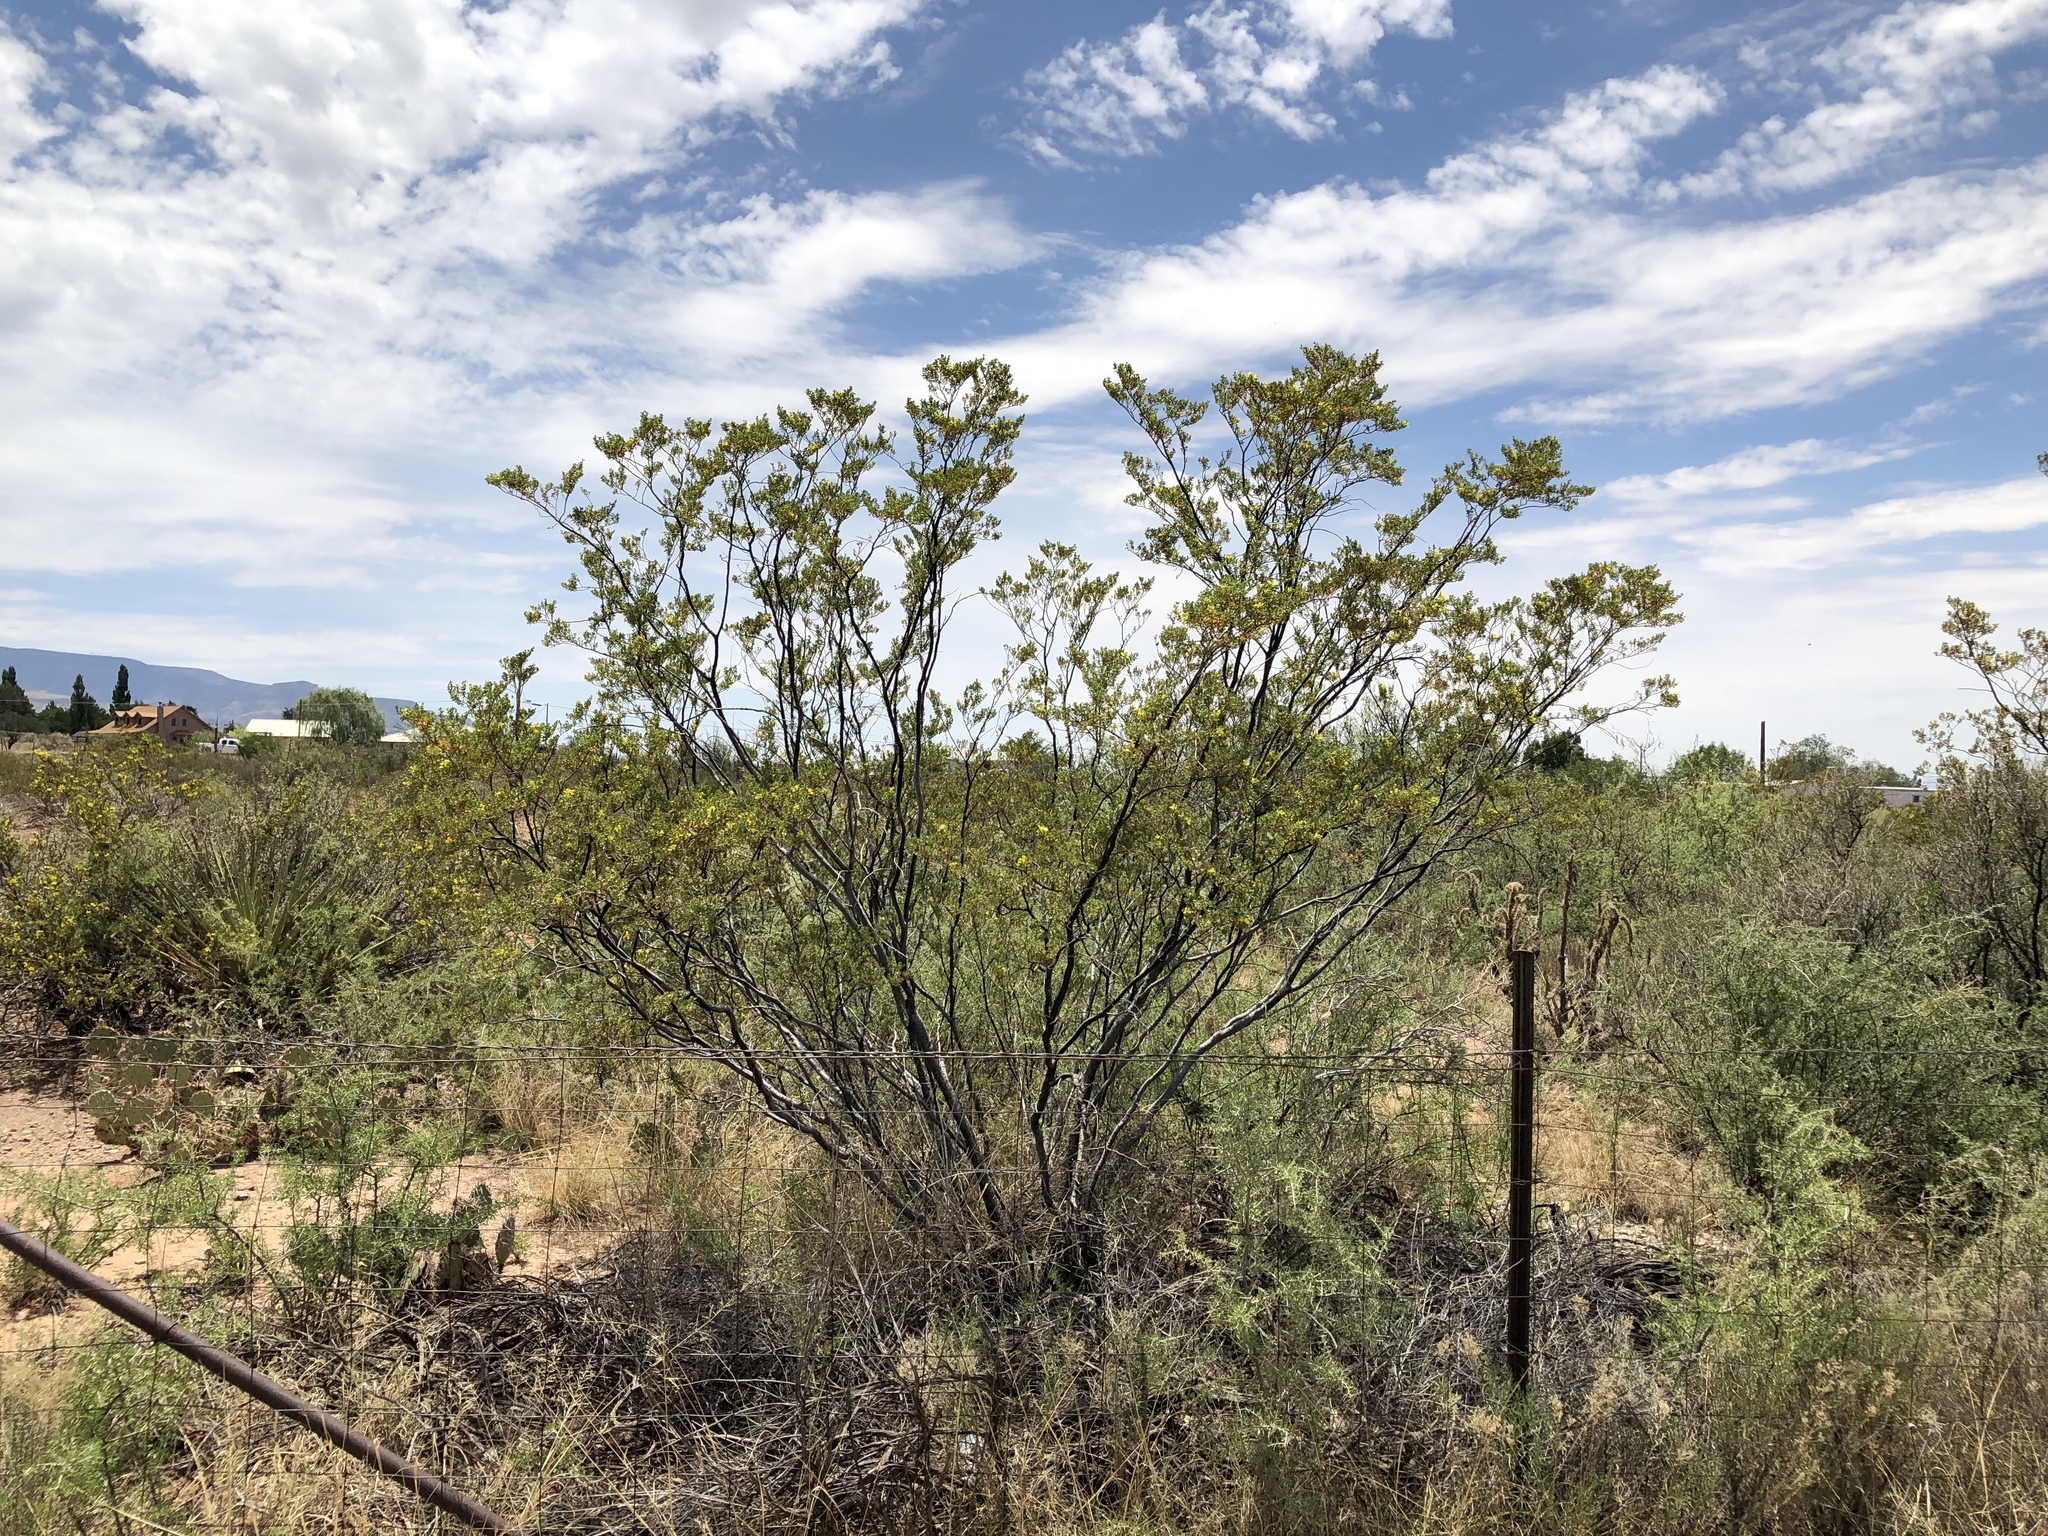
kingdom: Plantae
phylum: Tracheophyta
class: Magnoliopsida
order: Zygophyllales
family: Zygophyllaceae
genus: Larrea
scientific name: Larrea tridentata
